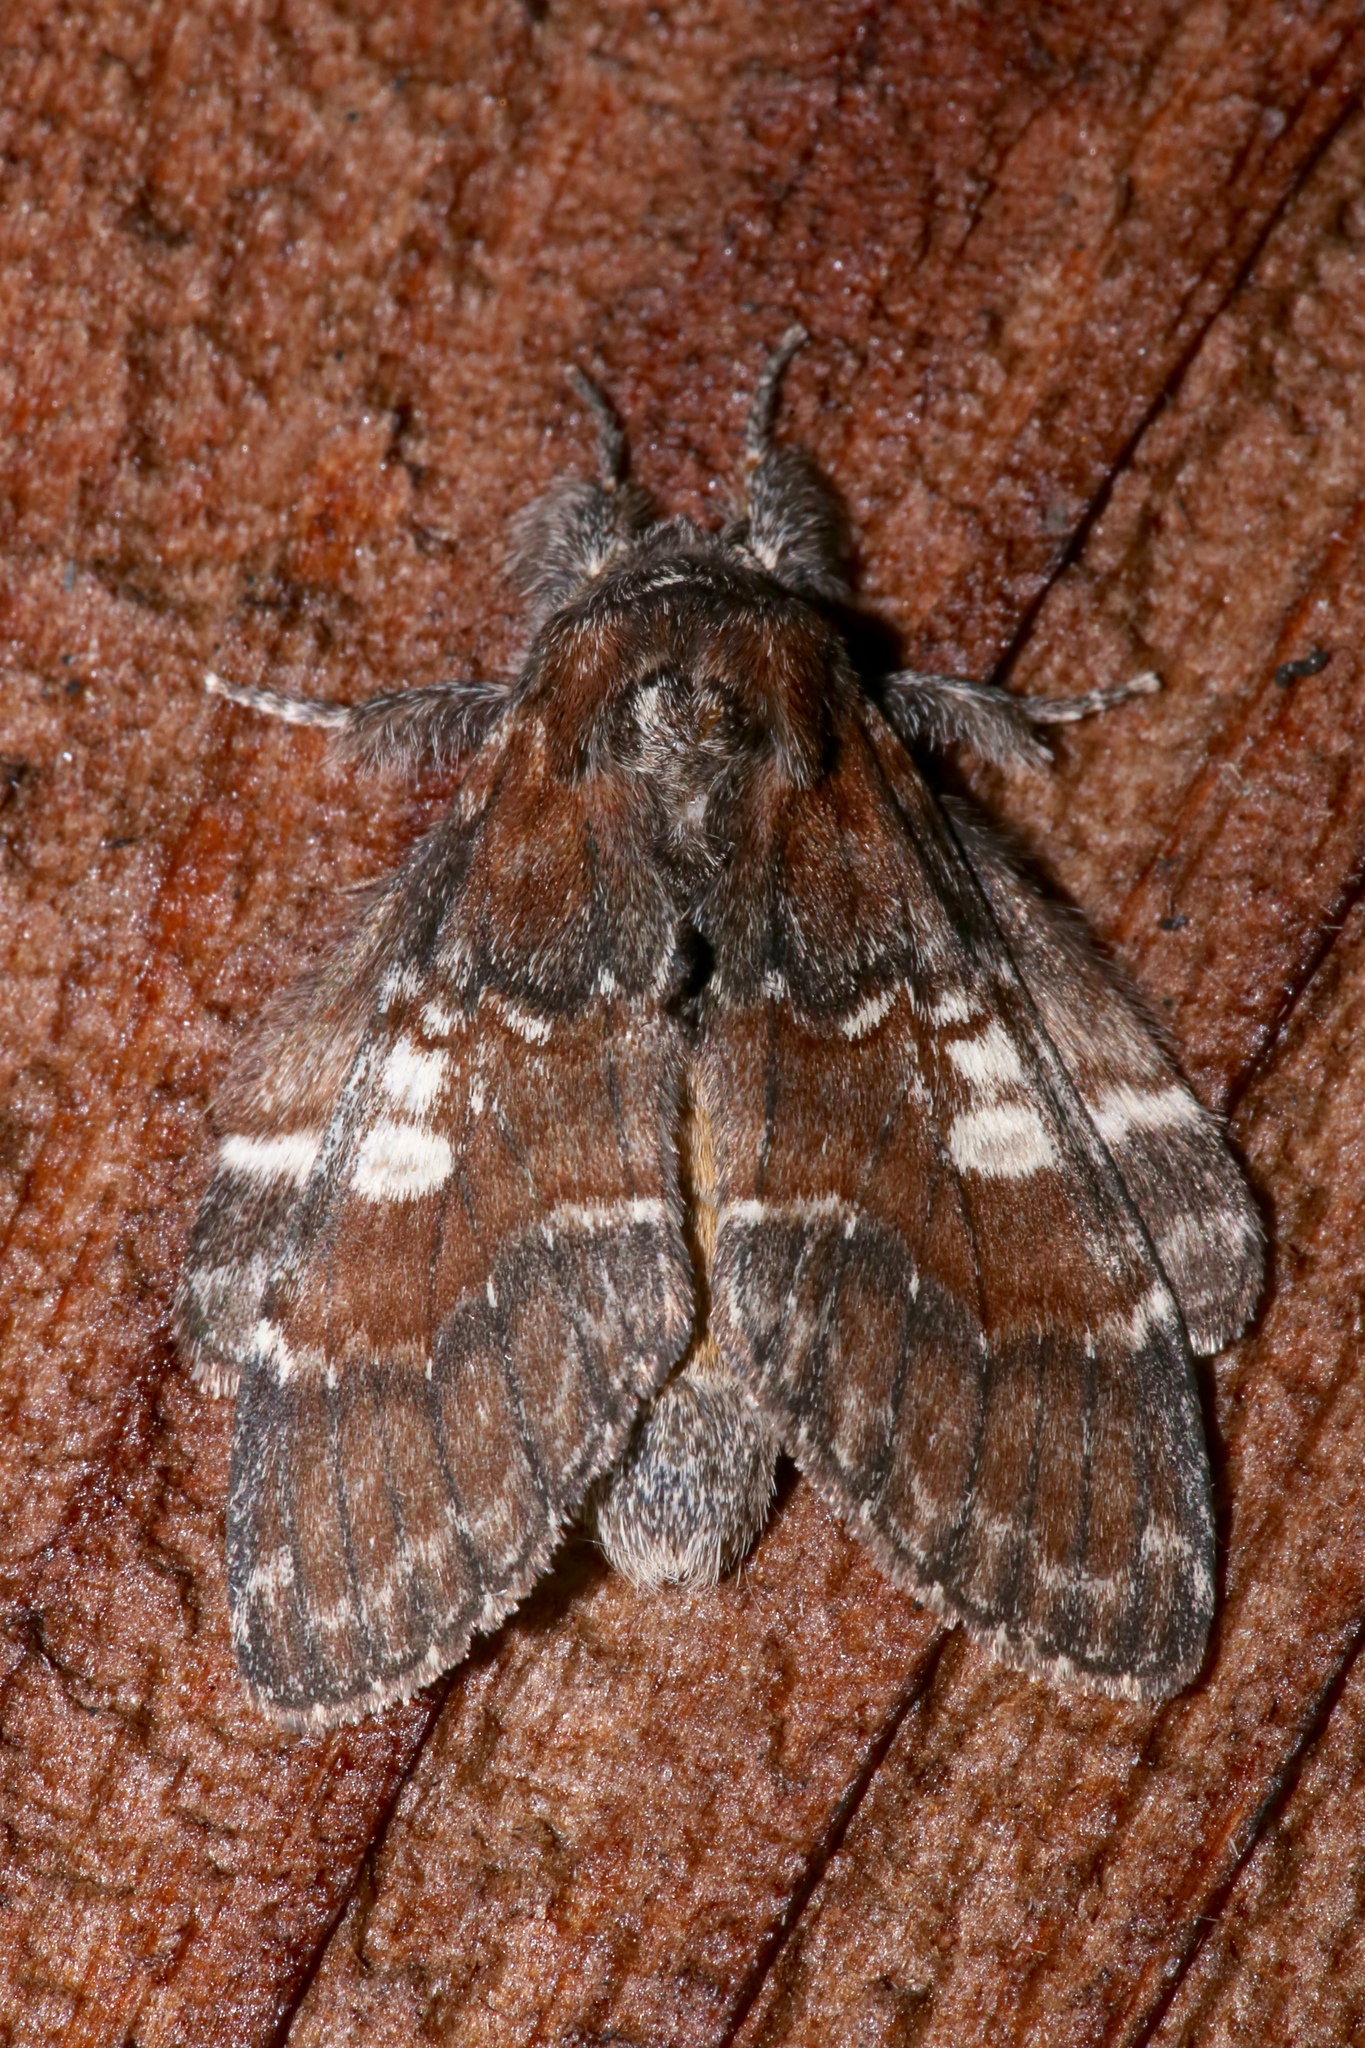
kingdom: Animalia
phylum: Arthropoda
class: Insecta
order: Lepidoptera
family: Notodontidae
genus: Peridea
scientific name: Peridea ferruginea
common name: Chocolate prominent
